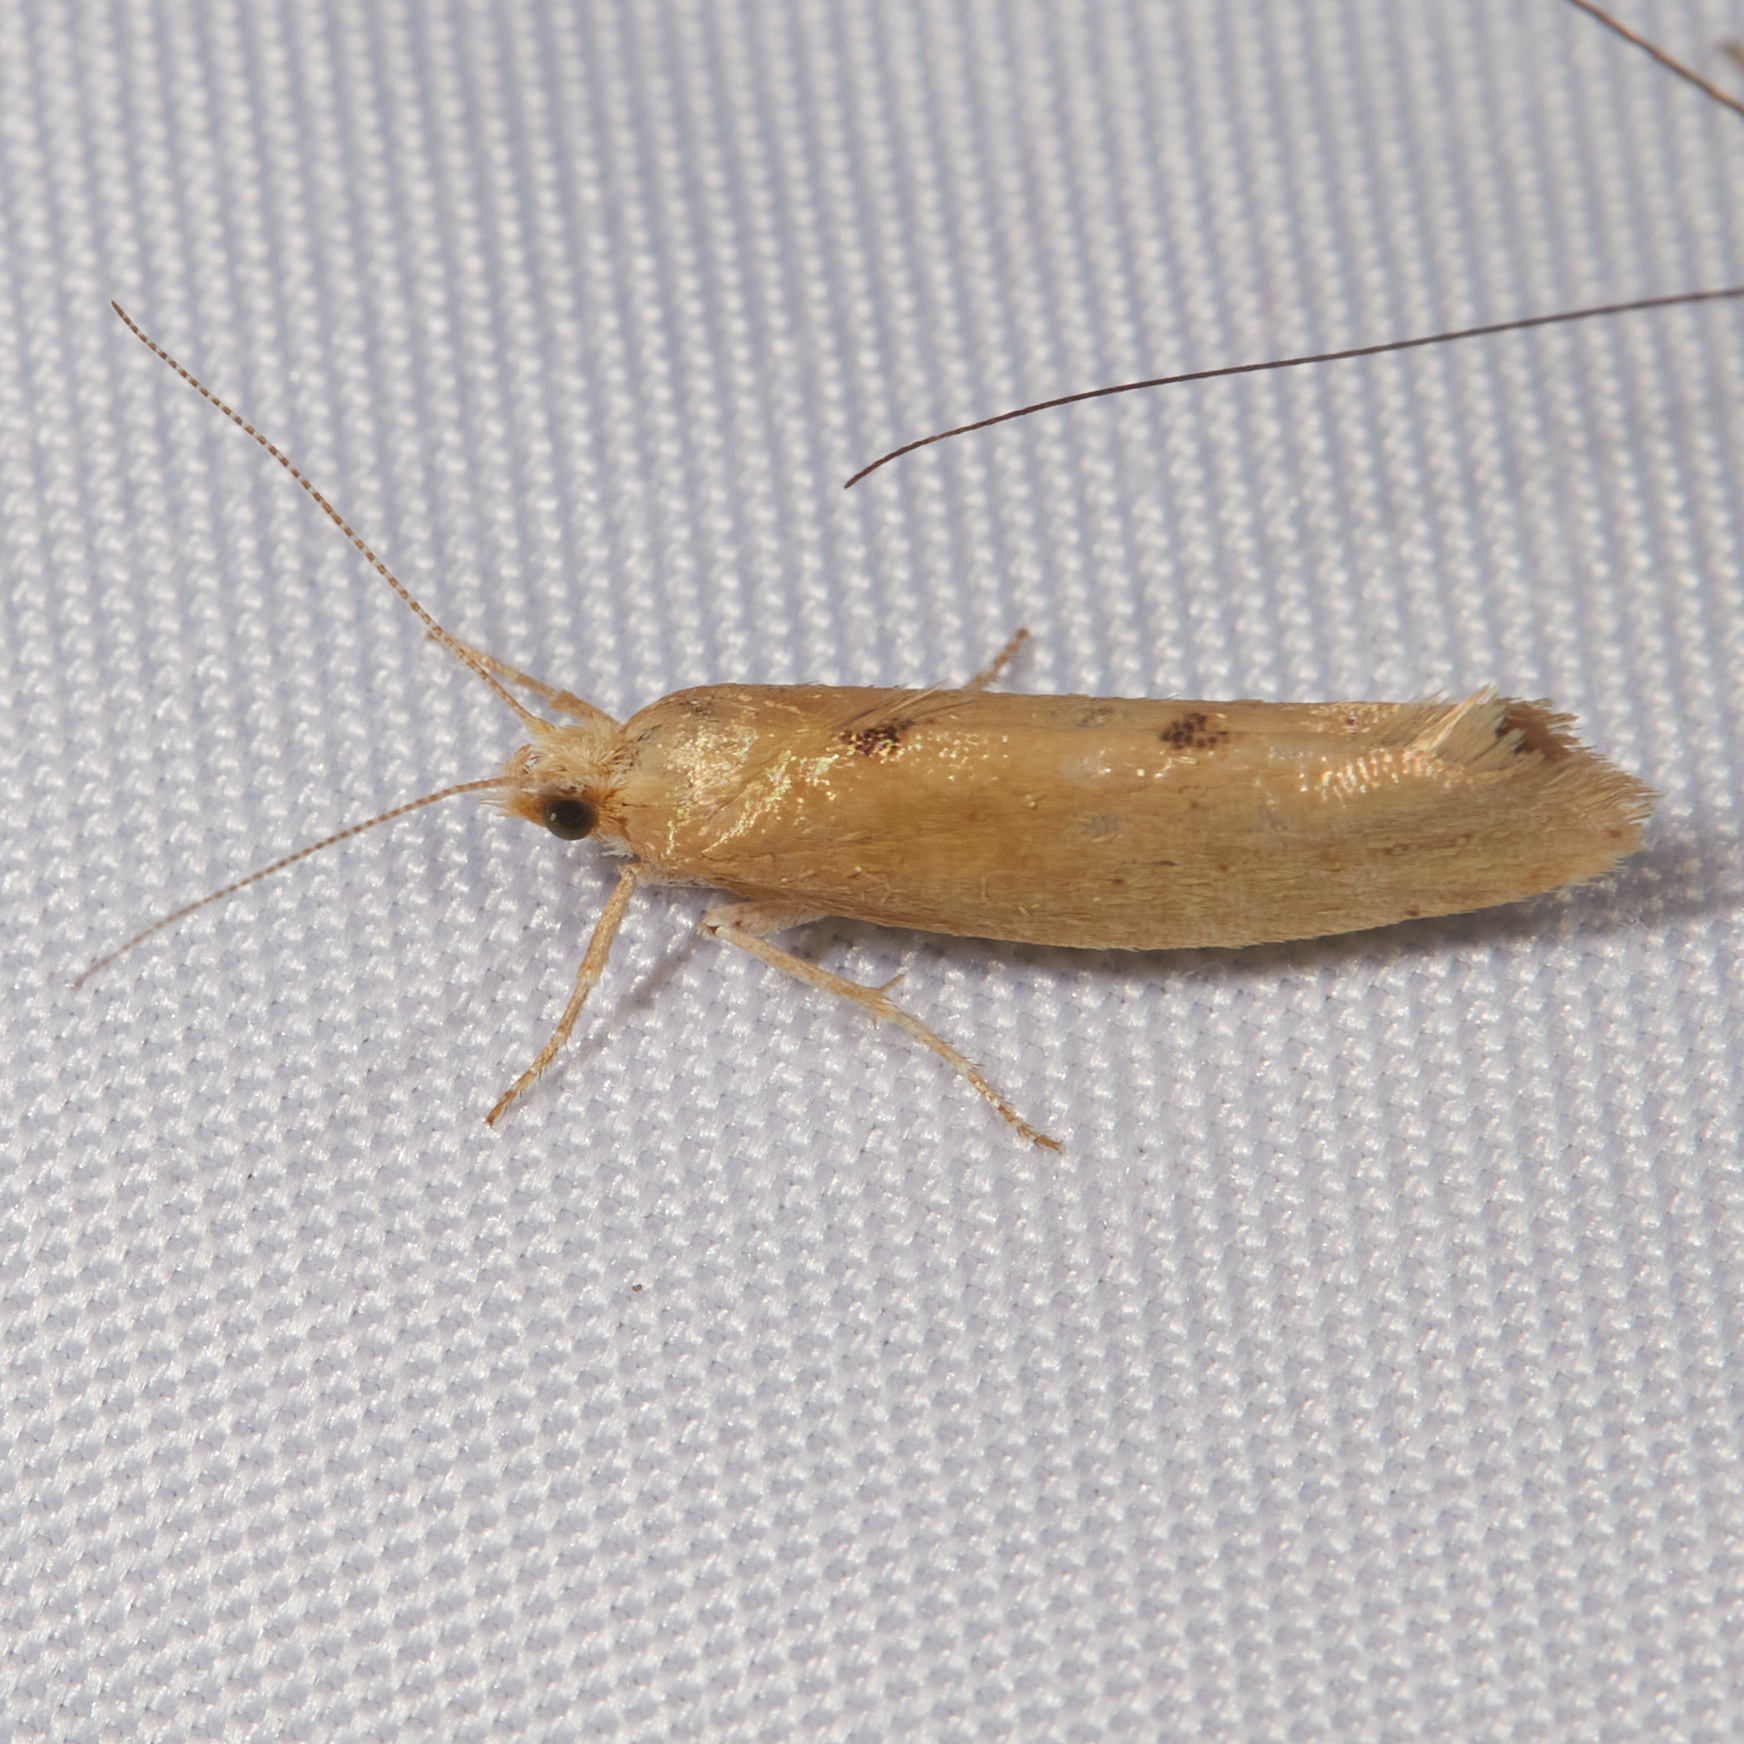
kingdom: Animalia
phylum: Arthropoda
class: Insecta
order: Lepidoptera
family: Ypsolophidae
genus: Ypsolopha
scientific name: Ypsolopha cervella
